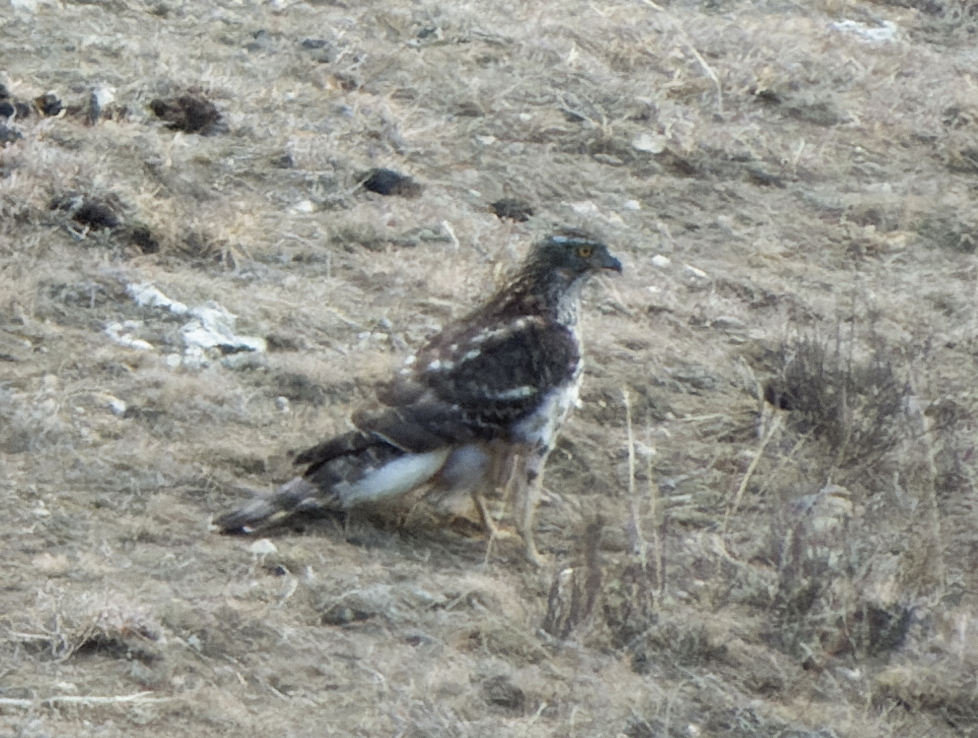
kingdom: Animalia
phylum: Chordata
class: Aves
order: Accipitriformes
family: Accipitridae
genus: Accipiter
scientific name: Accipiter gentilis
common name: Northern goshawk
